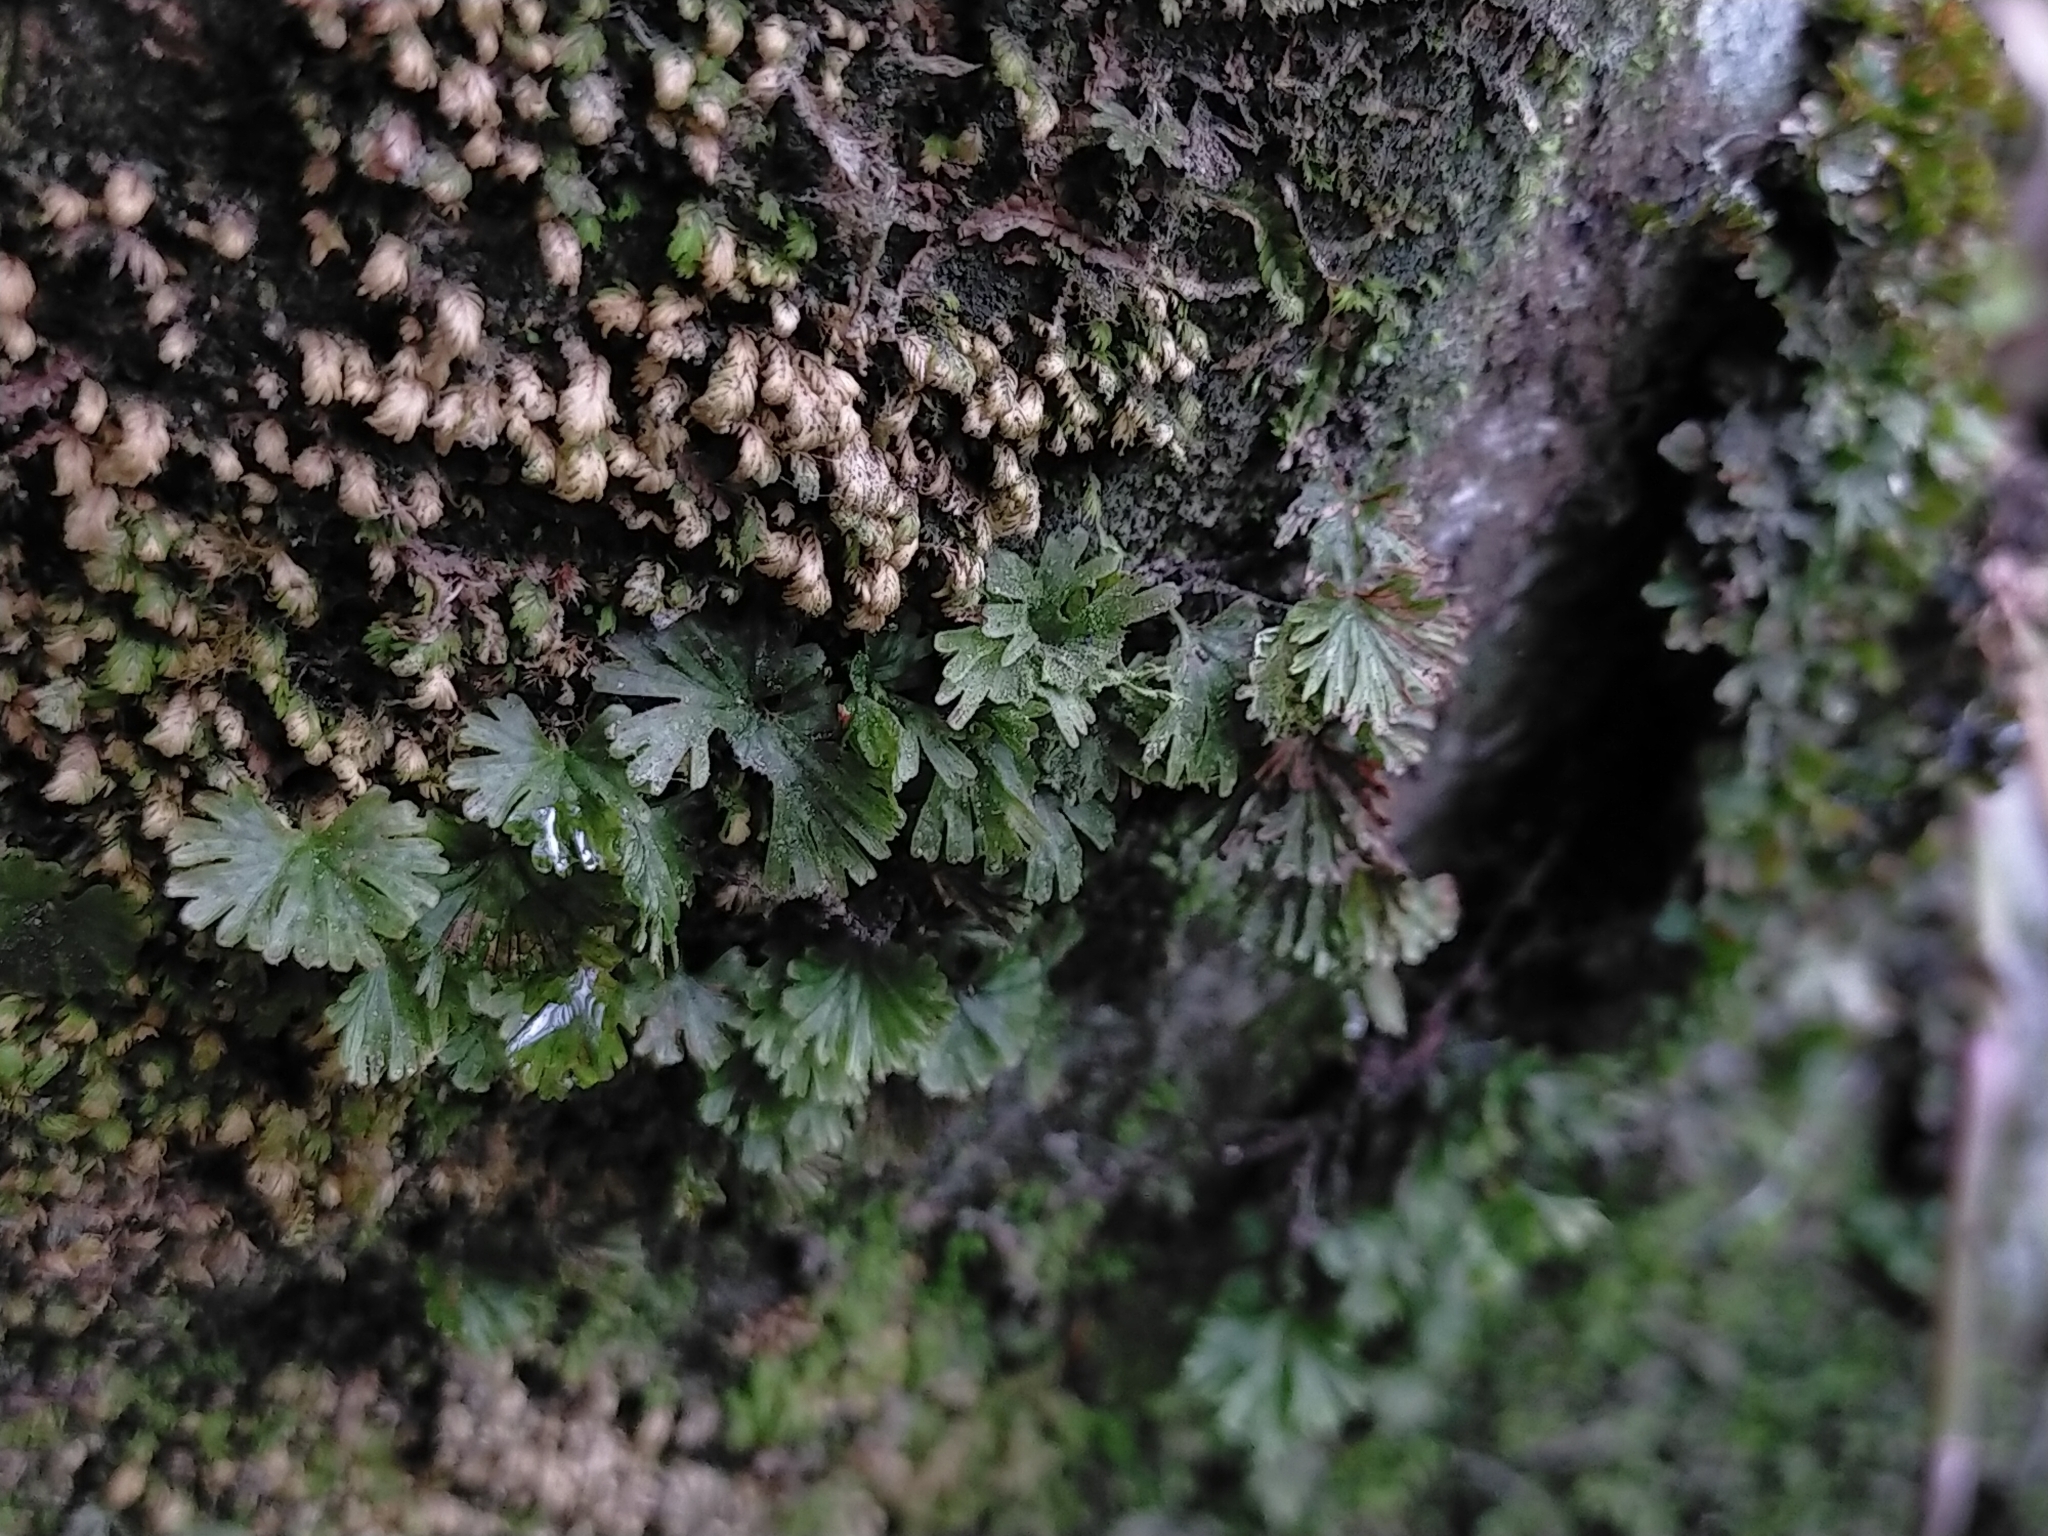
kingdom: Plantae
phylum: Tracheophyta
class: Polypodiopsida
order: Hymenophyllales
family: Hymenophyllaceae
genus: Crepidomanes
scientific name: Crepidomanes parvulum
